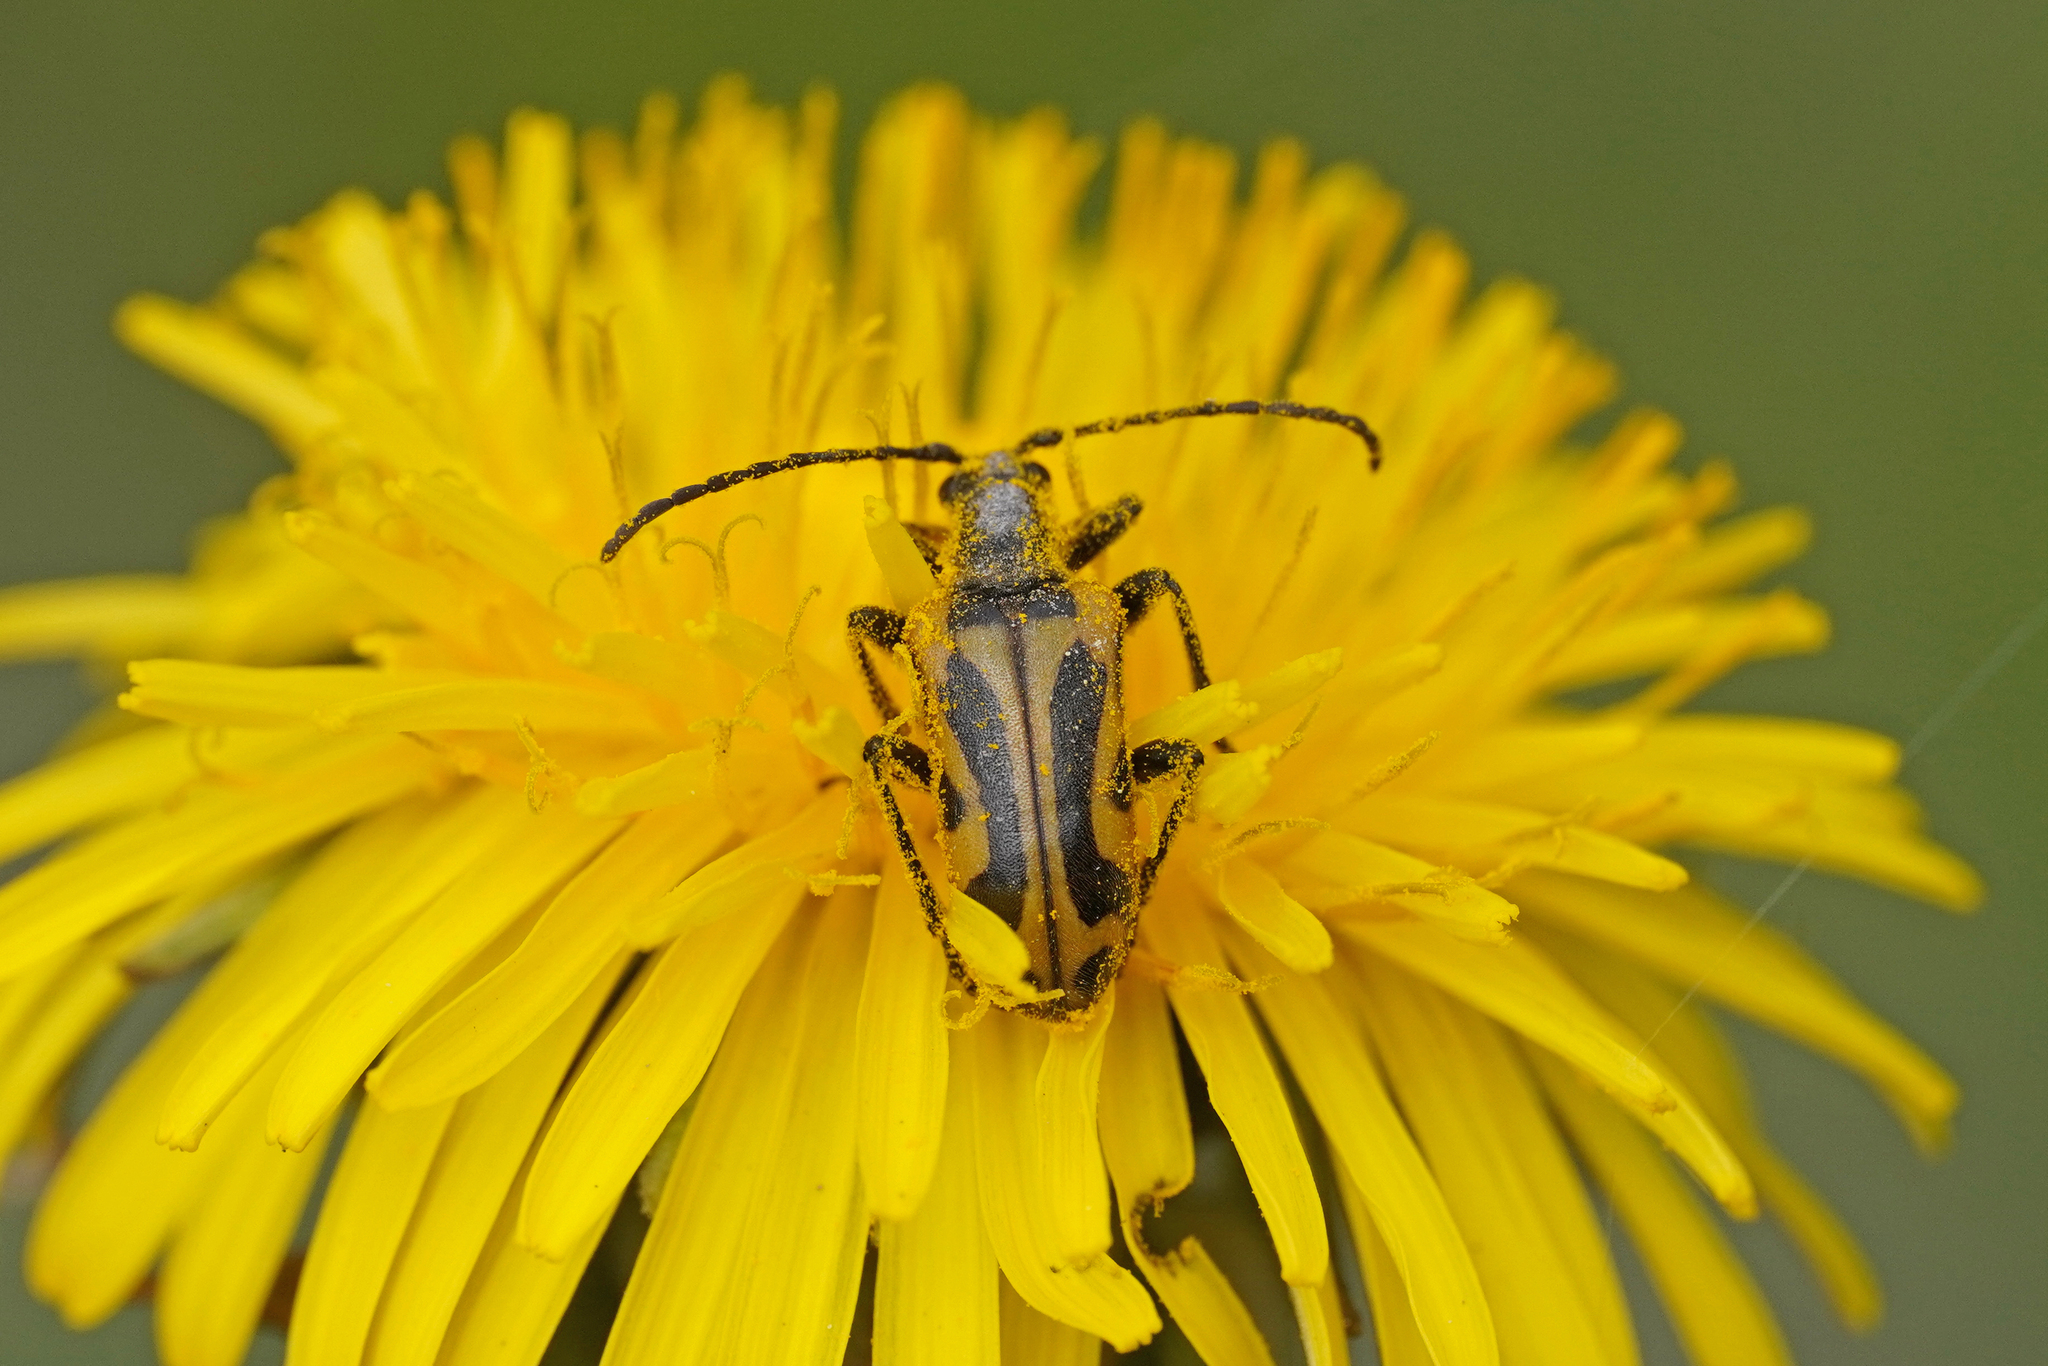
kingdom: Animalia
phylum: Arthropoda
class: Insecta
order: Coleoptera
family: Cerambycidae
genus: Brachyta
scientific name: Brachyta interrogationis
